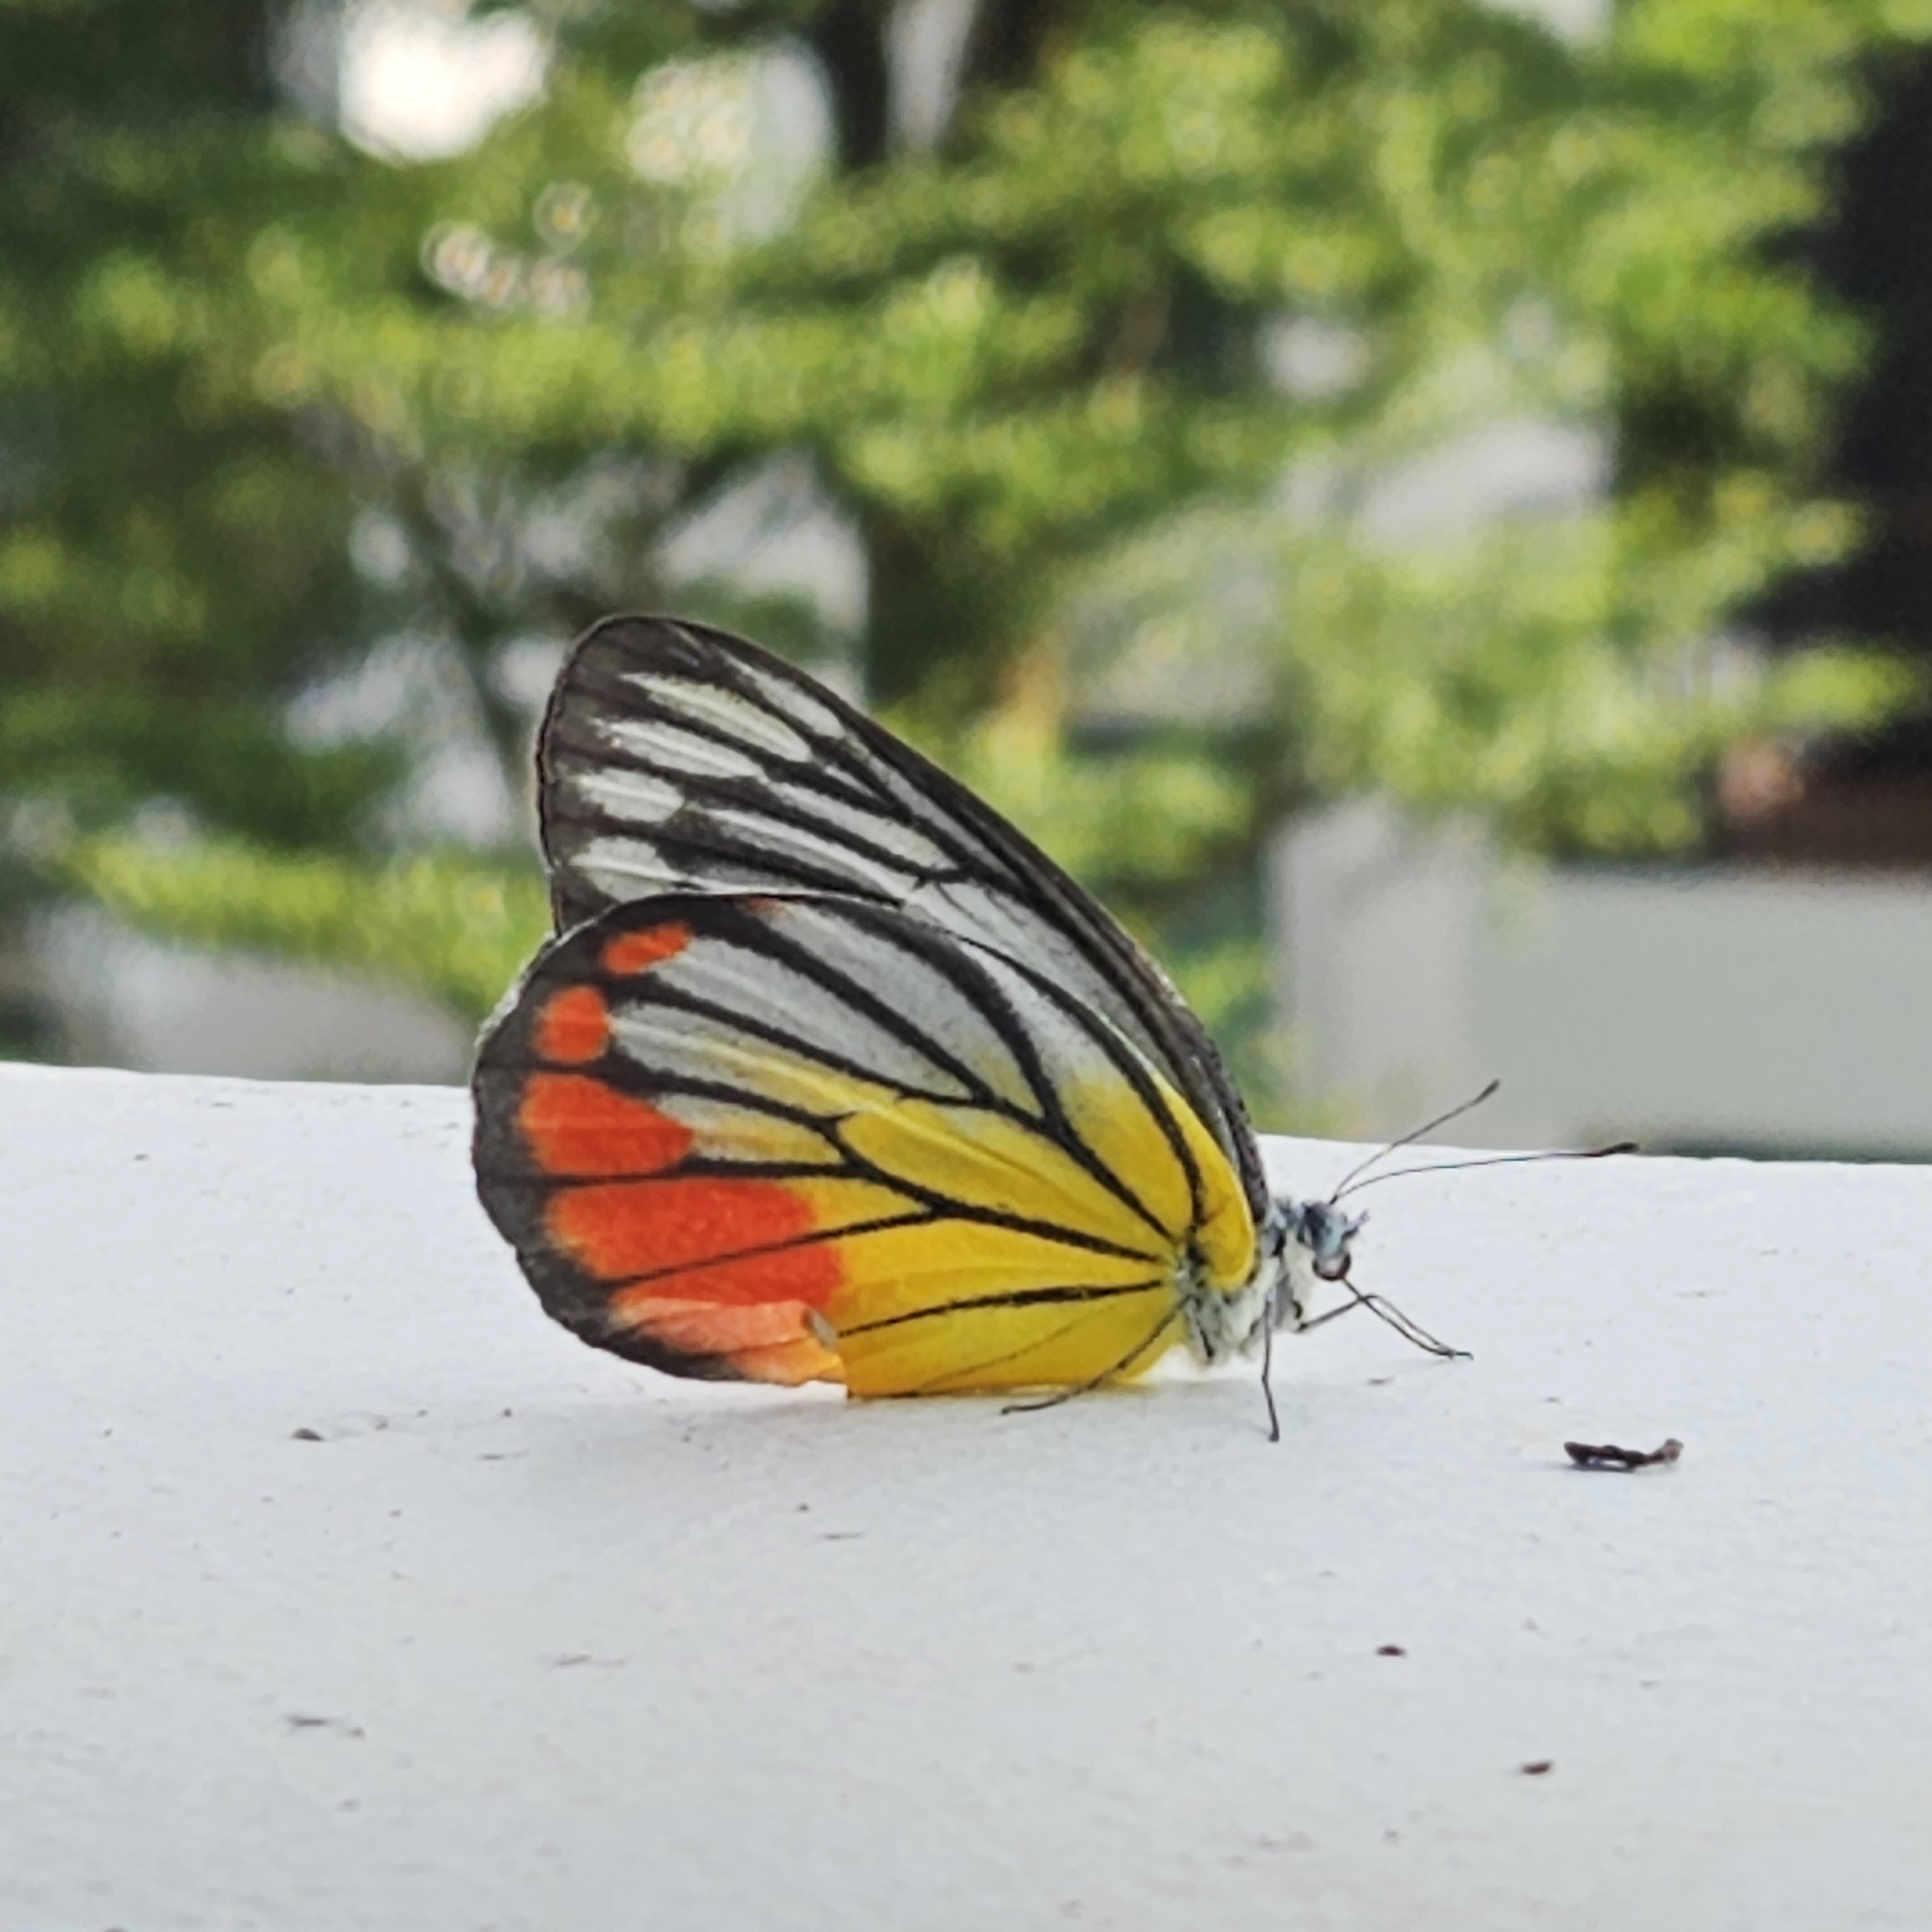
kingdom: Animalia
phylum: Arthropoda
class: Insecta
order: Lepidoptera
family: Pieridae
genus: Delias
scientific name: Delias hyparete
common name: Painted jezebel
